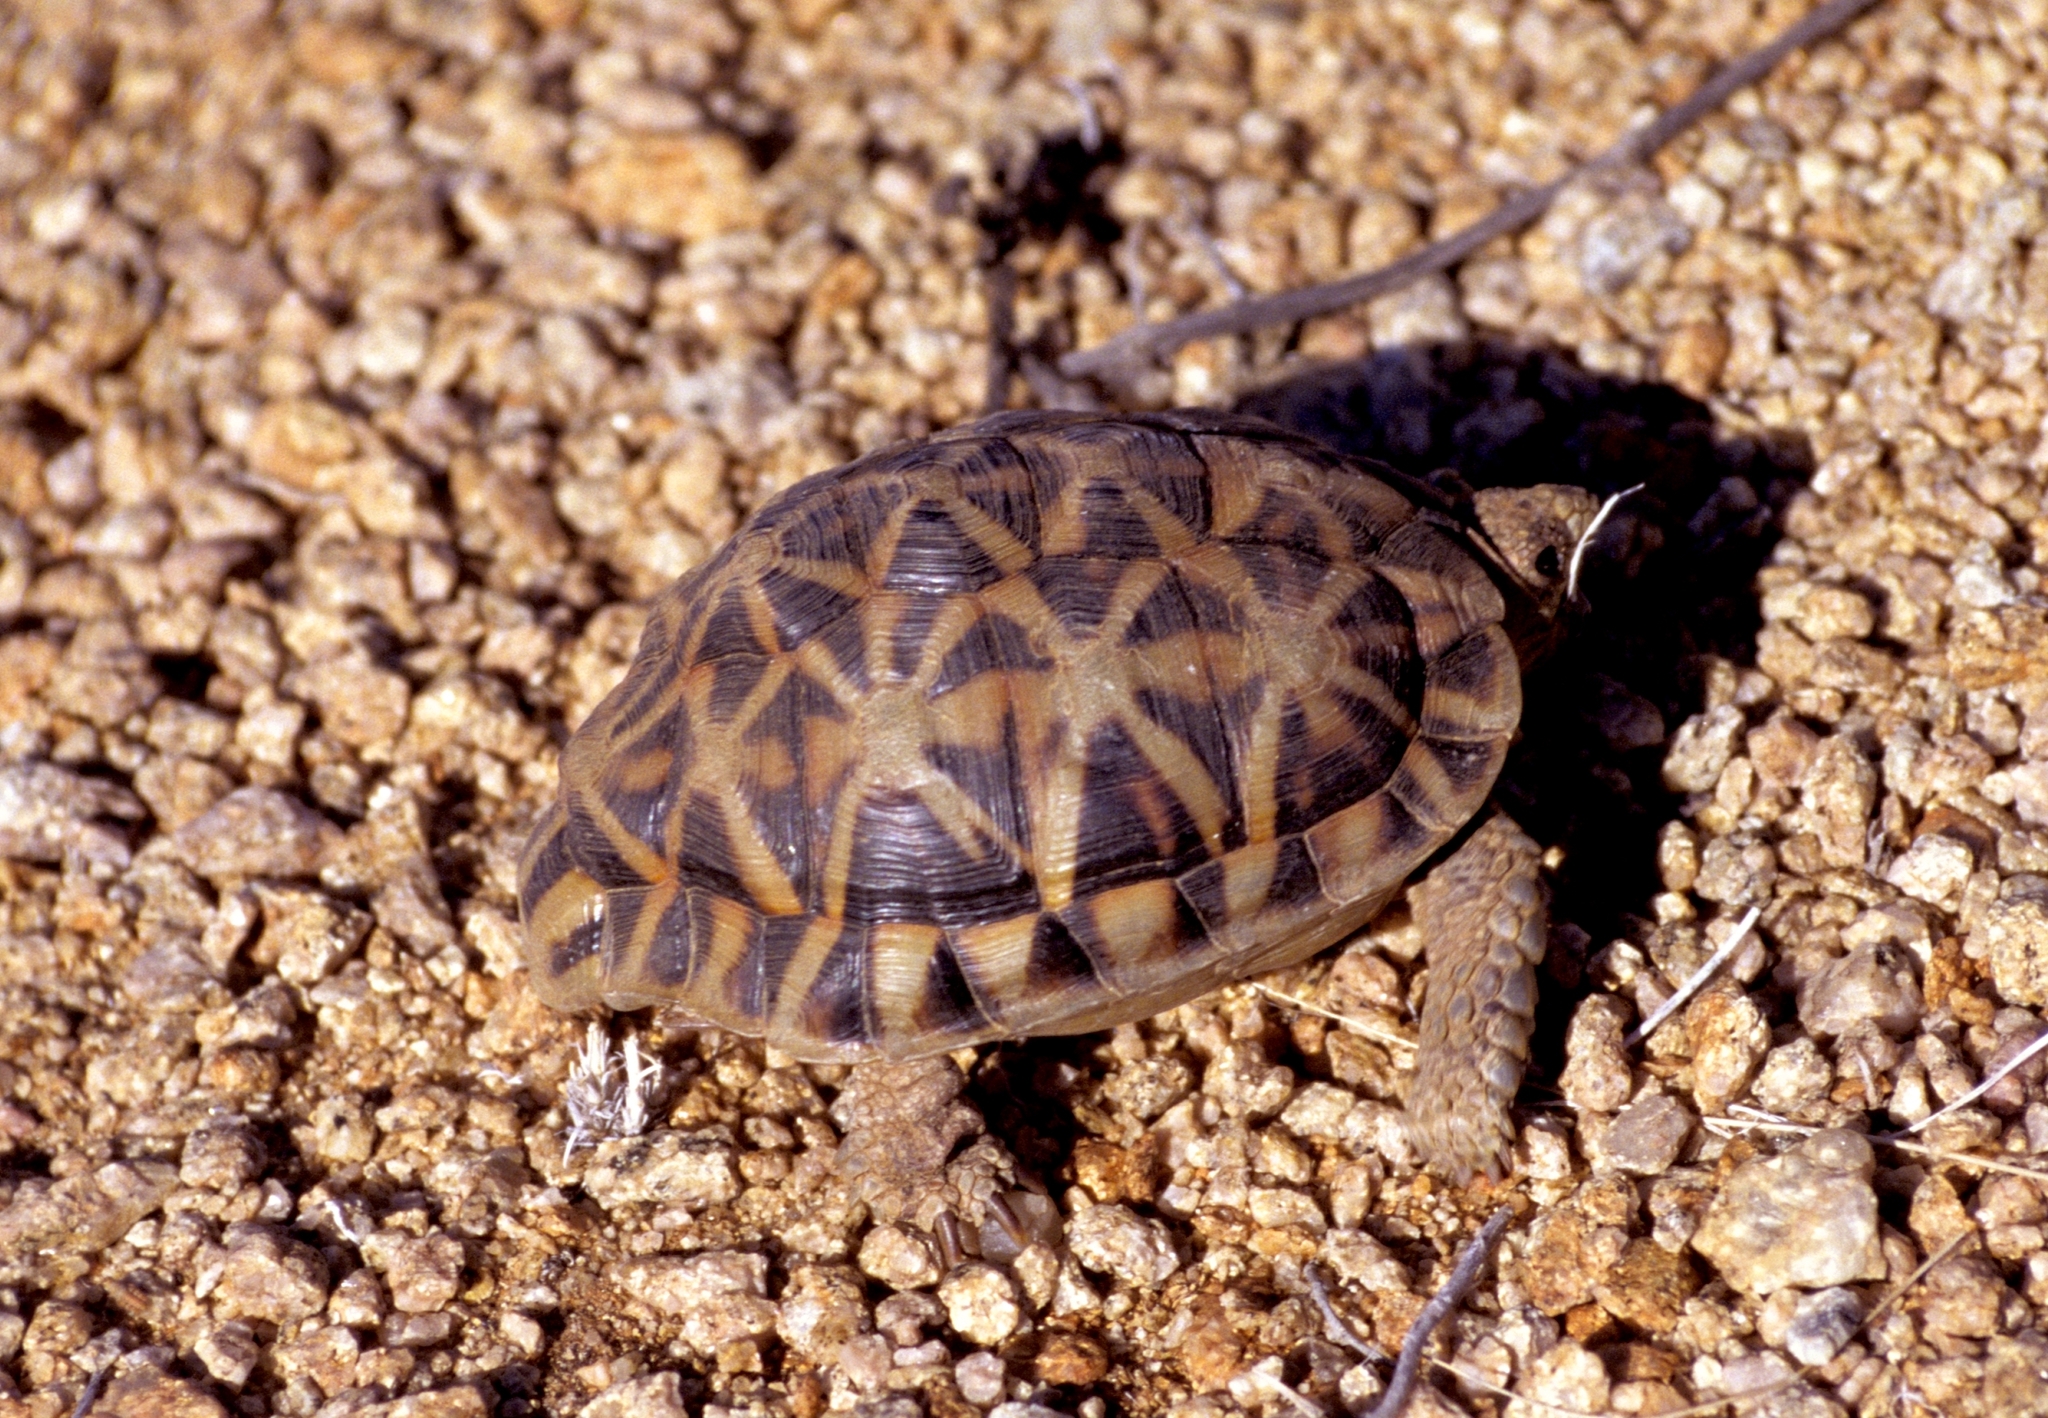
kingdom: Animalia
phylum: Chordata
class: Testudines
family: Testudinidae
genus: Psammobates
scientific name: Psammobates tentorius
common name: Tent tortoise
